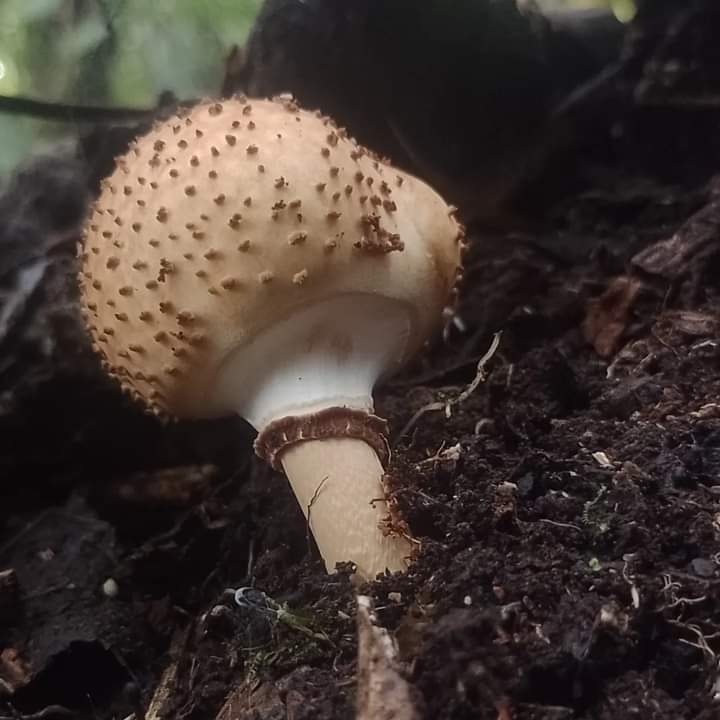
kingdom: Fungi
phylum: Basidiomycota
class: Agaricomycetes
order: Agaricales
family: Agaricaceae
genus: Echinoderma
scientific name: Echinoderma asperum
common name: Freckled dapperling
